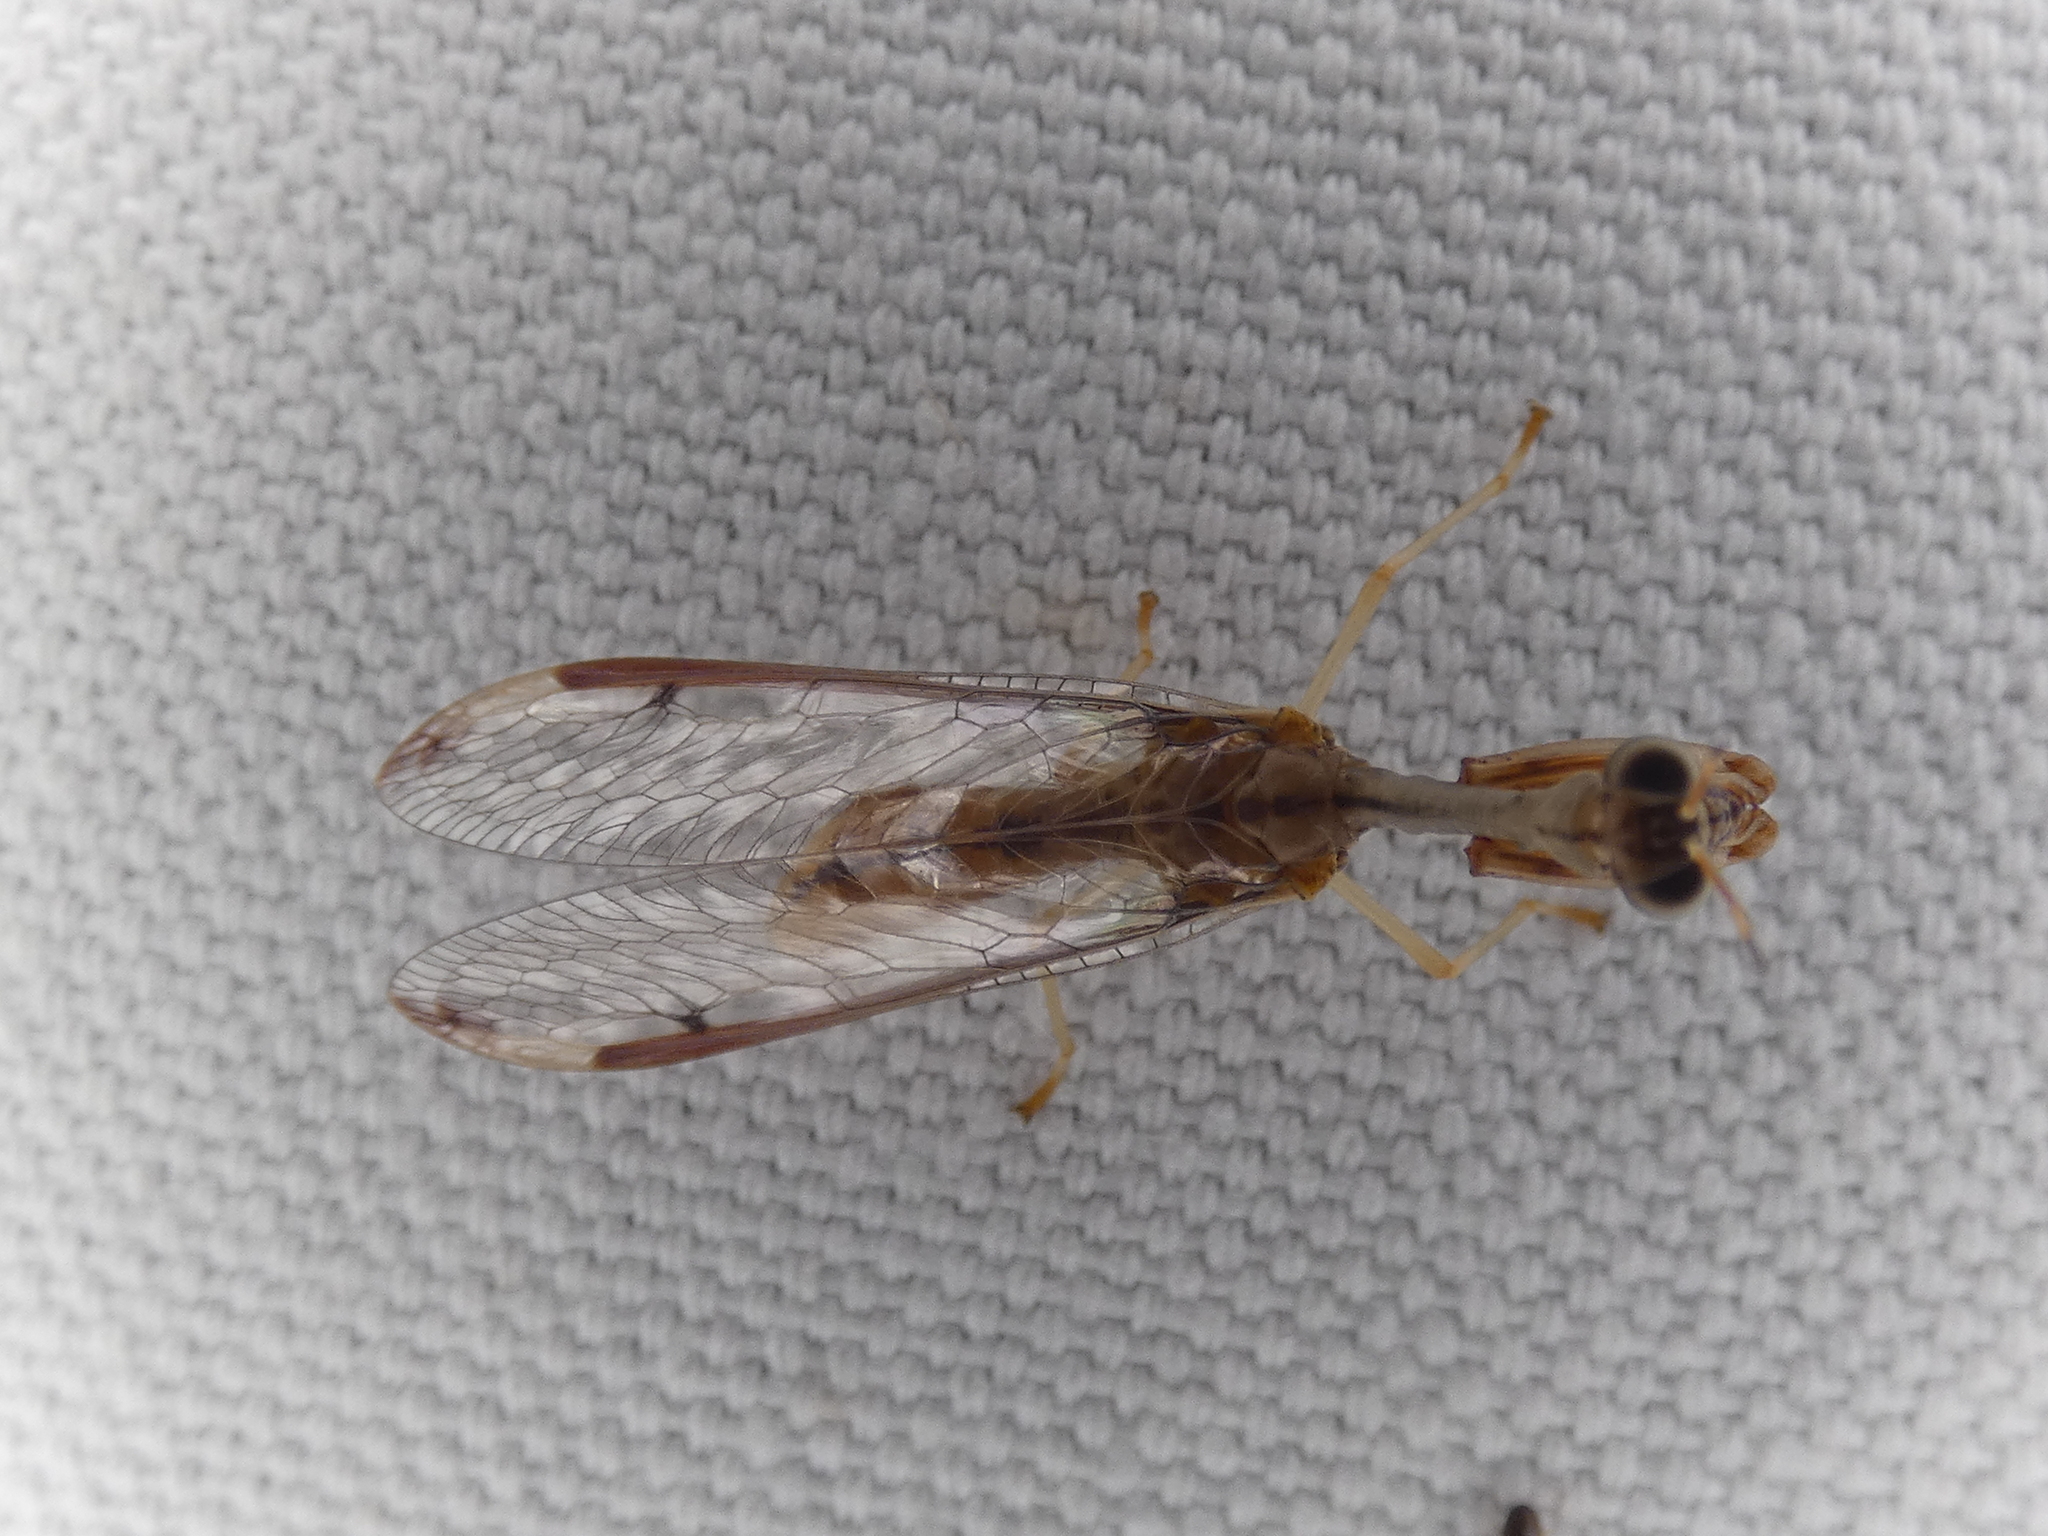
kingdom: Animalia
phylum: Arthropoda
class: Insecta
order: Neuroptera
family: Mantispidae
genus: Dicromantispa
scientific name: Dicromantispa interrupta
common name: Four-spotted mantidfly
